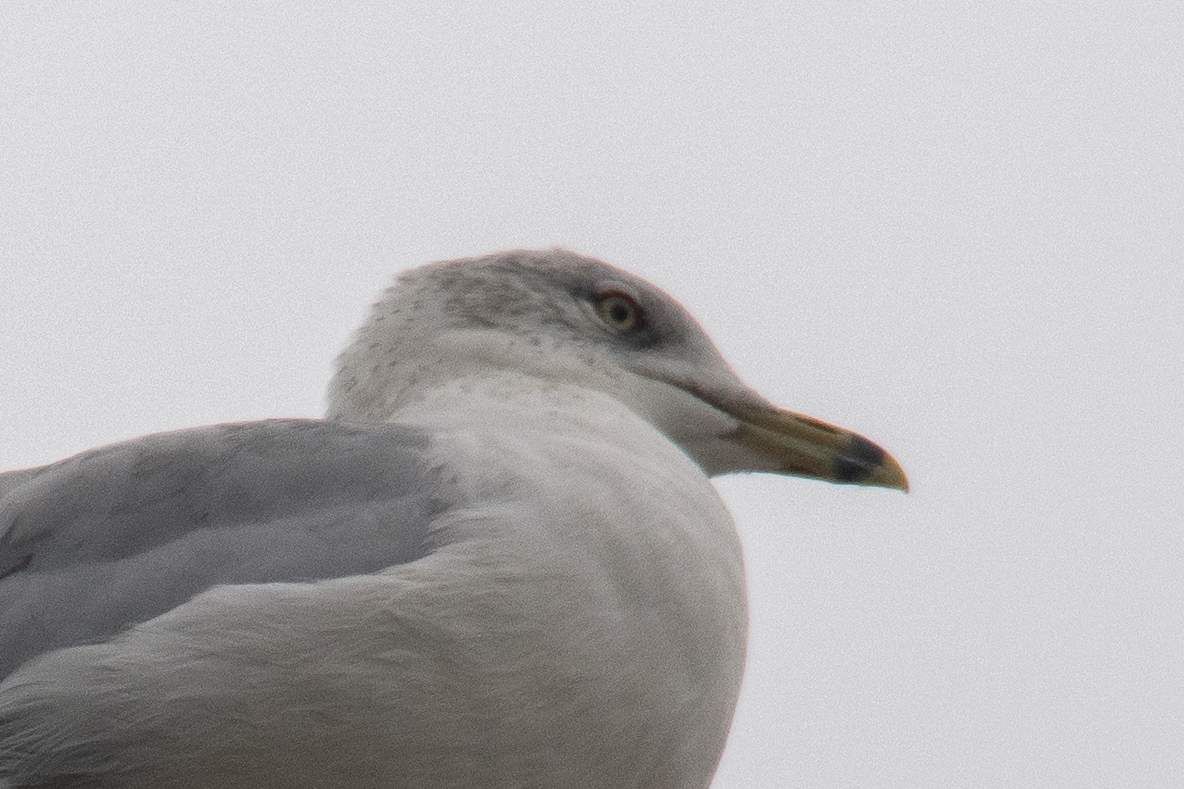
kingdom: Animalia
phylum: Chordata
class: Aves
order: Charadriiformes
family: Laridae
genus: Larus
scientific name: Larus delawarensis
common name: Ring-billed gull
